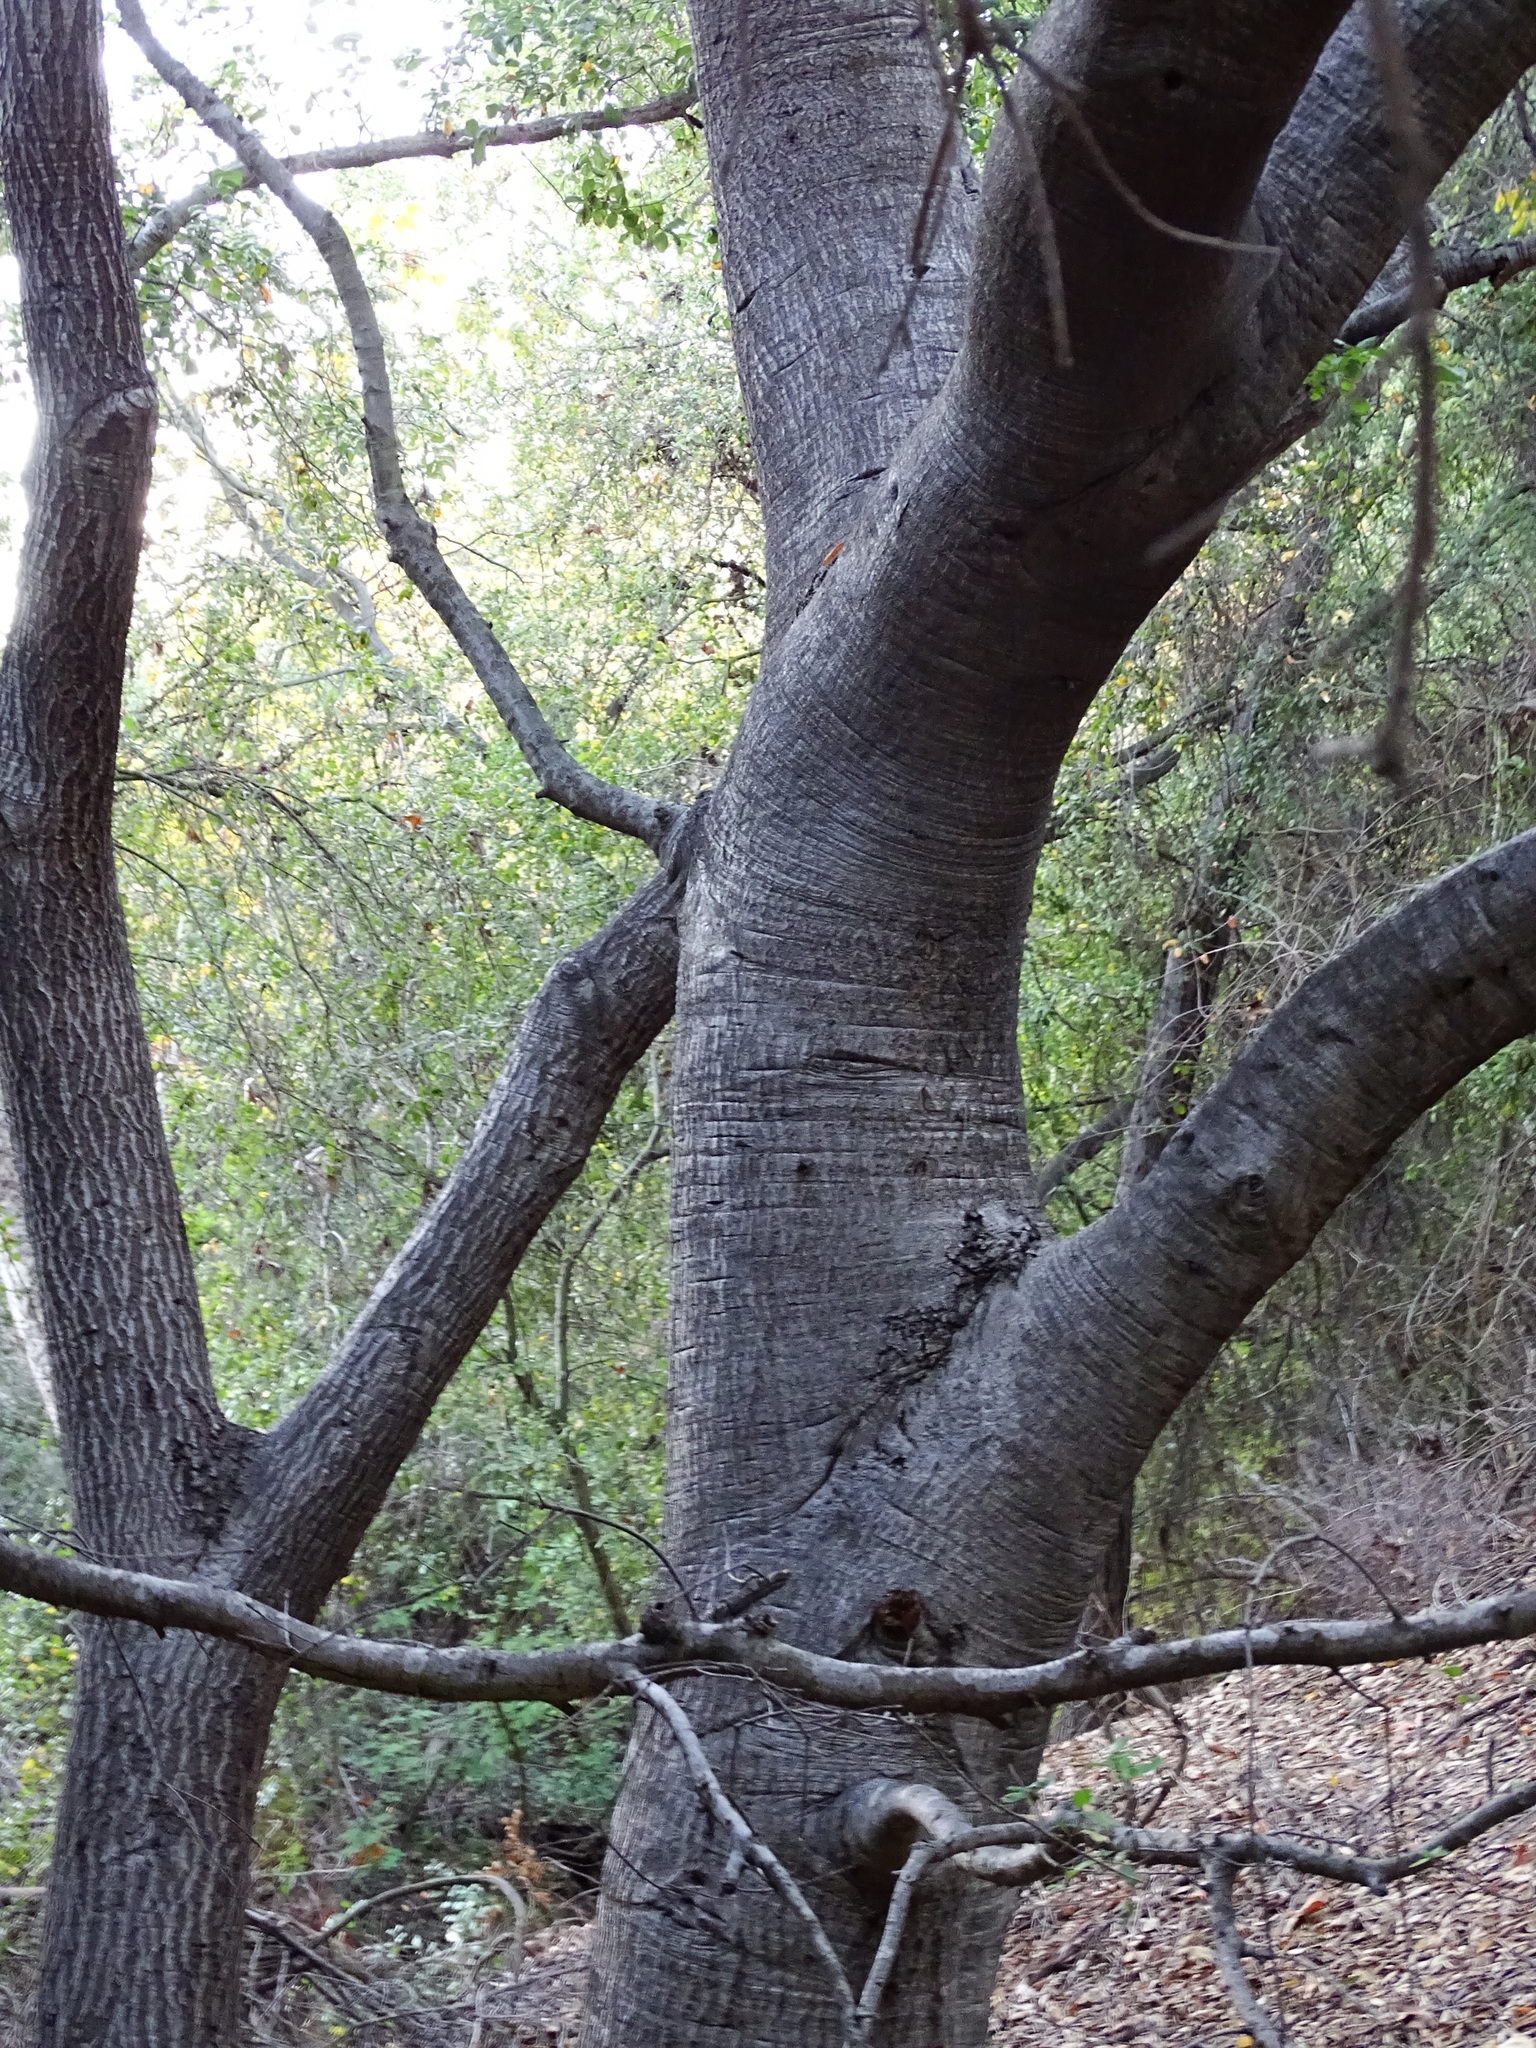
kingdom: Plantae
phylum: Tracheophyta
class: Magnoliopsida
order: Fagales
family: Fagaceae
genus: Quercus
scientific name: Quercus wislizeni
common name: Interior live oak
